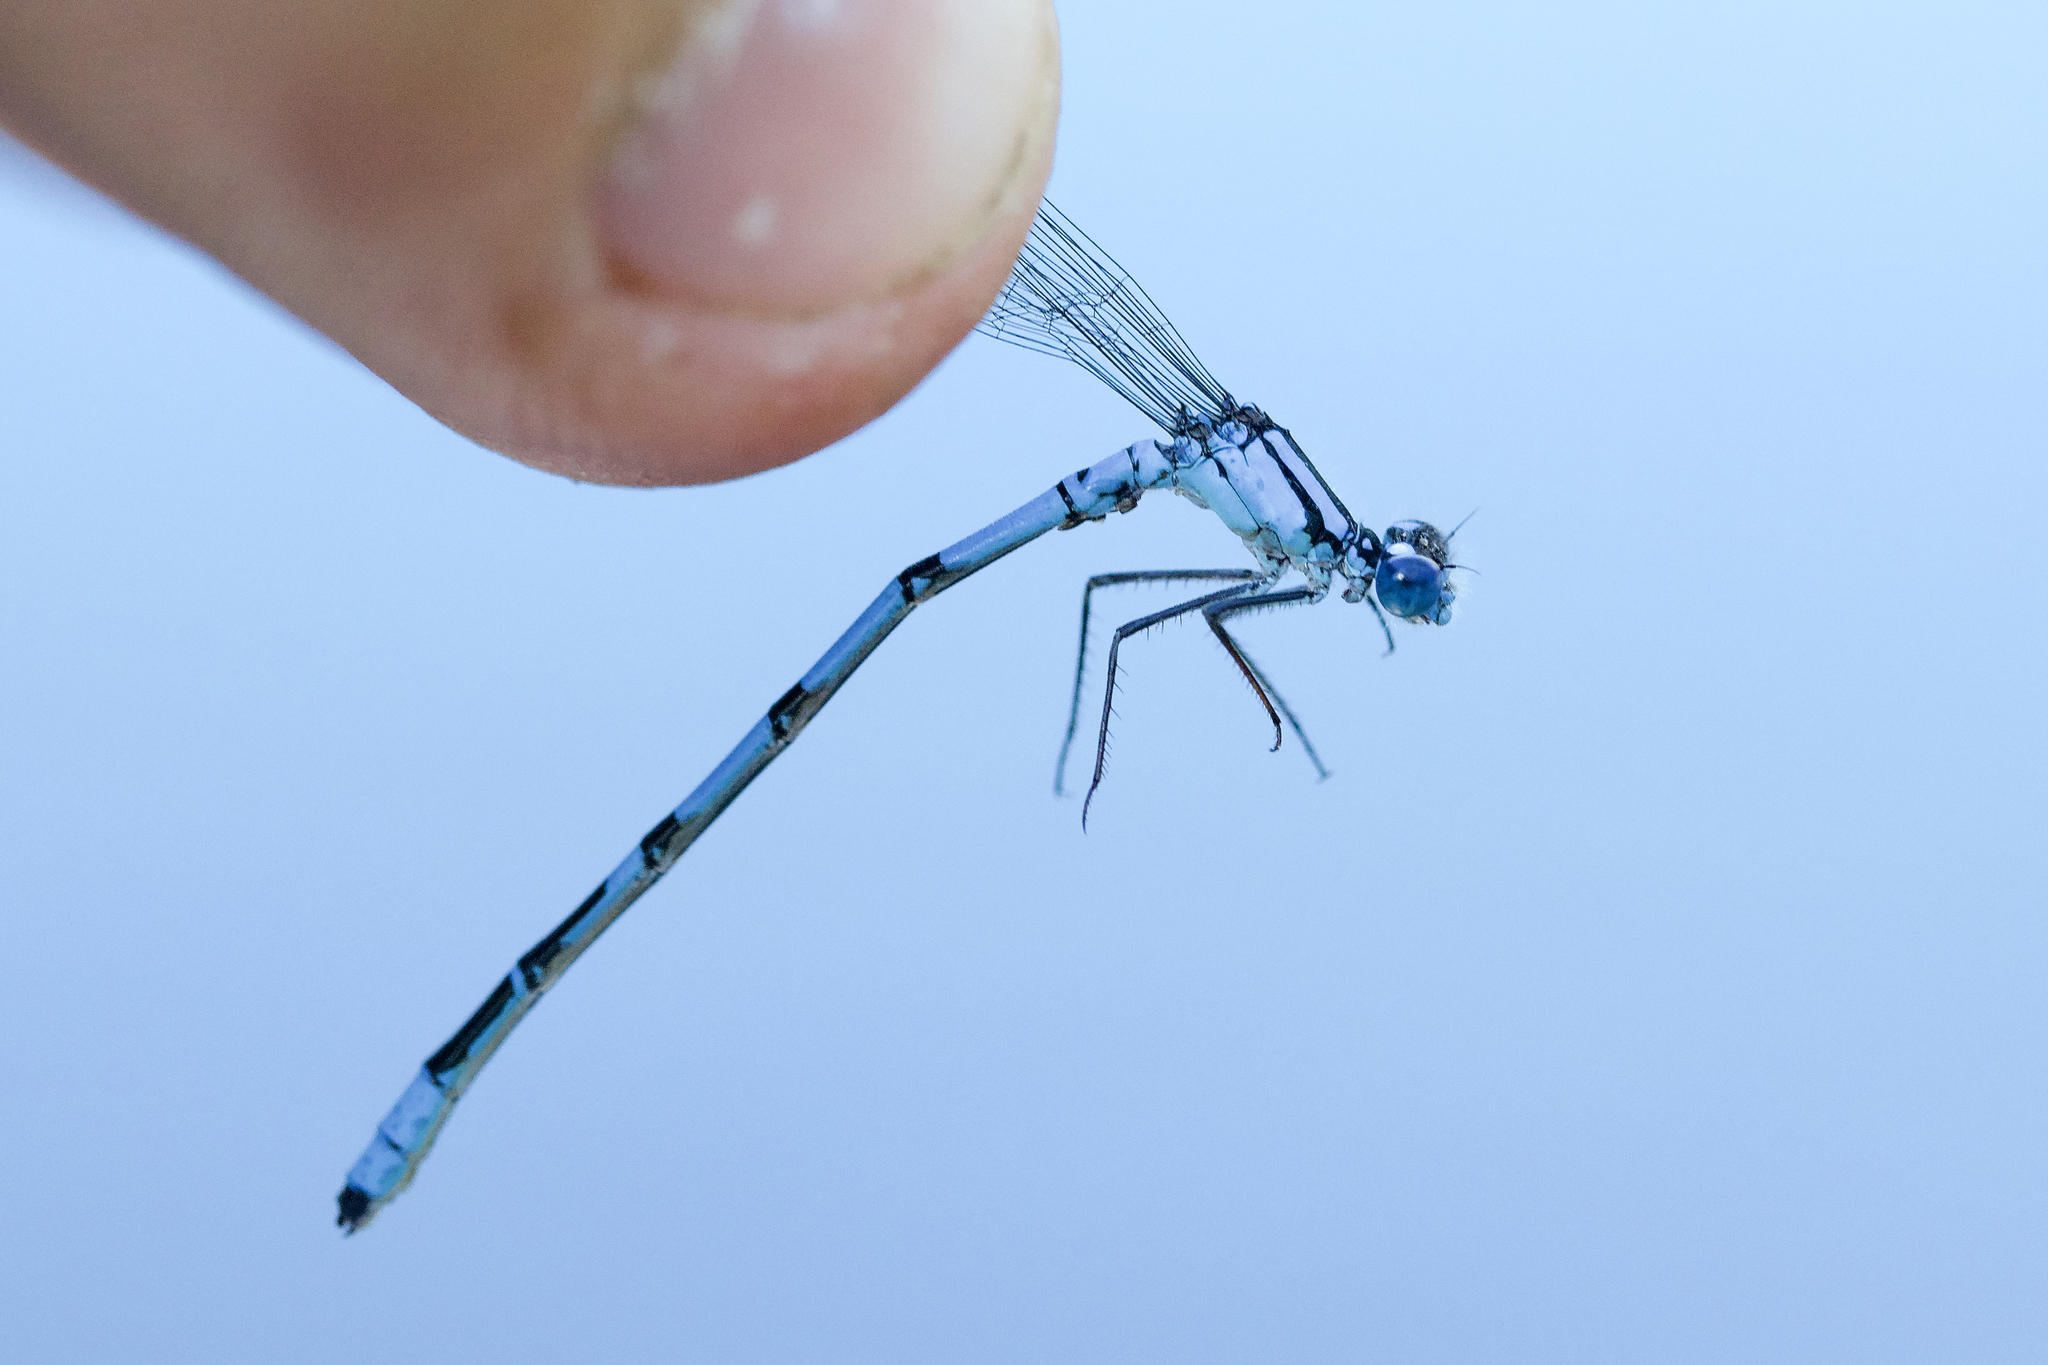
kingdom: Animalia
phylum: Arthropoda
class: Insecta
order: Odonata
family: Coenagrionidae
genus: Enallagma
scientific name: Enallagma boreale
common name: Boreal bluet
